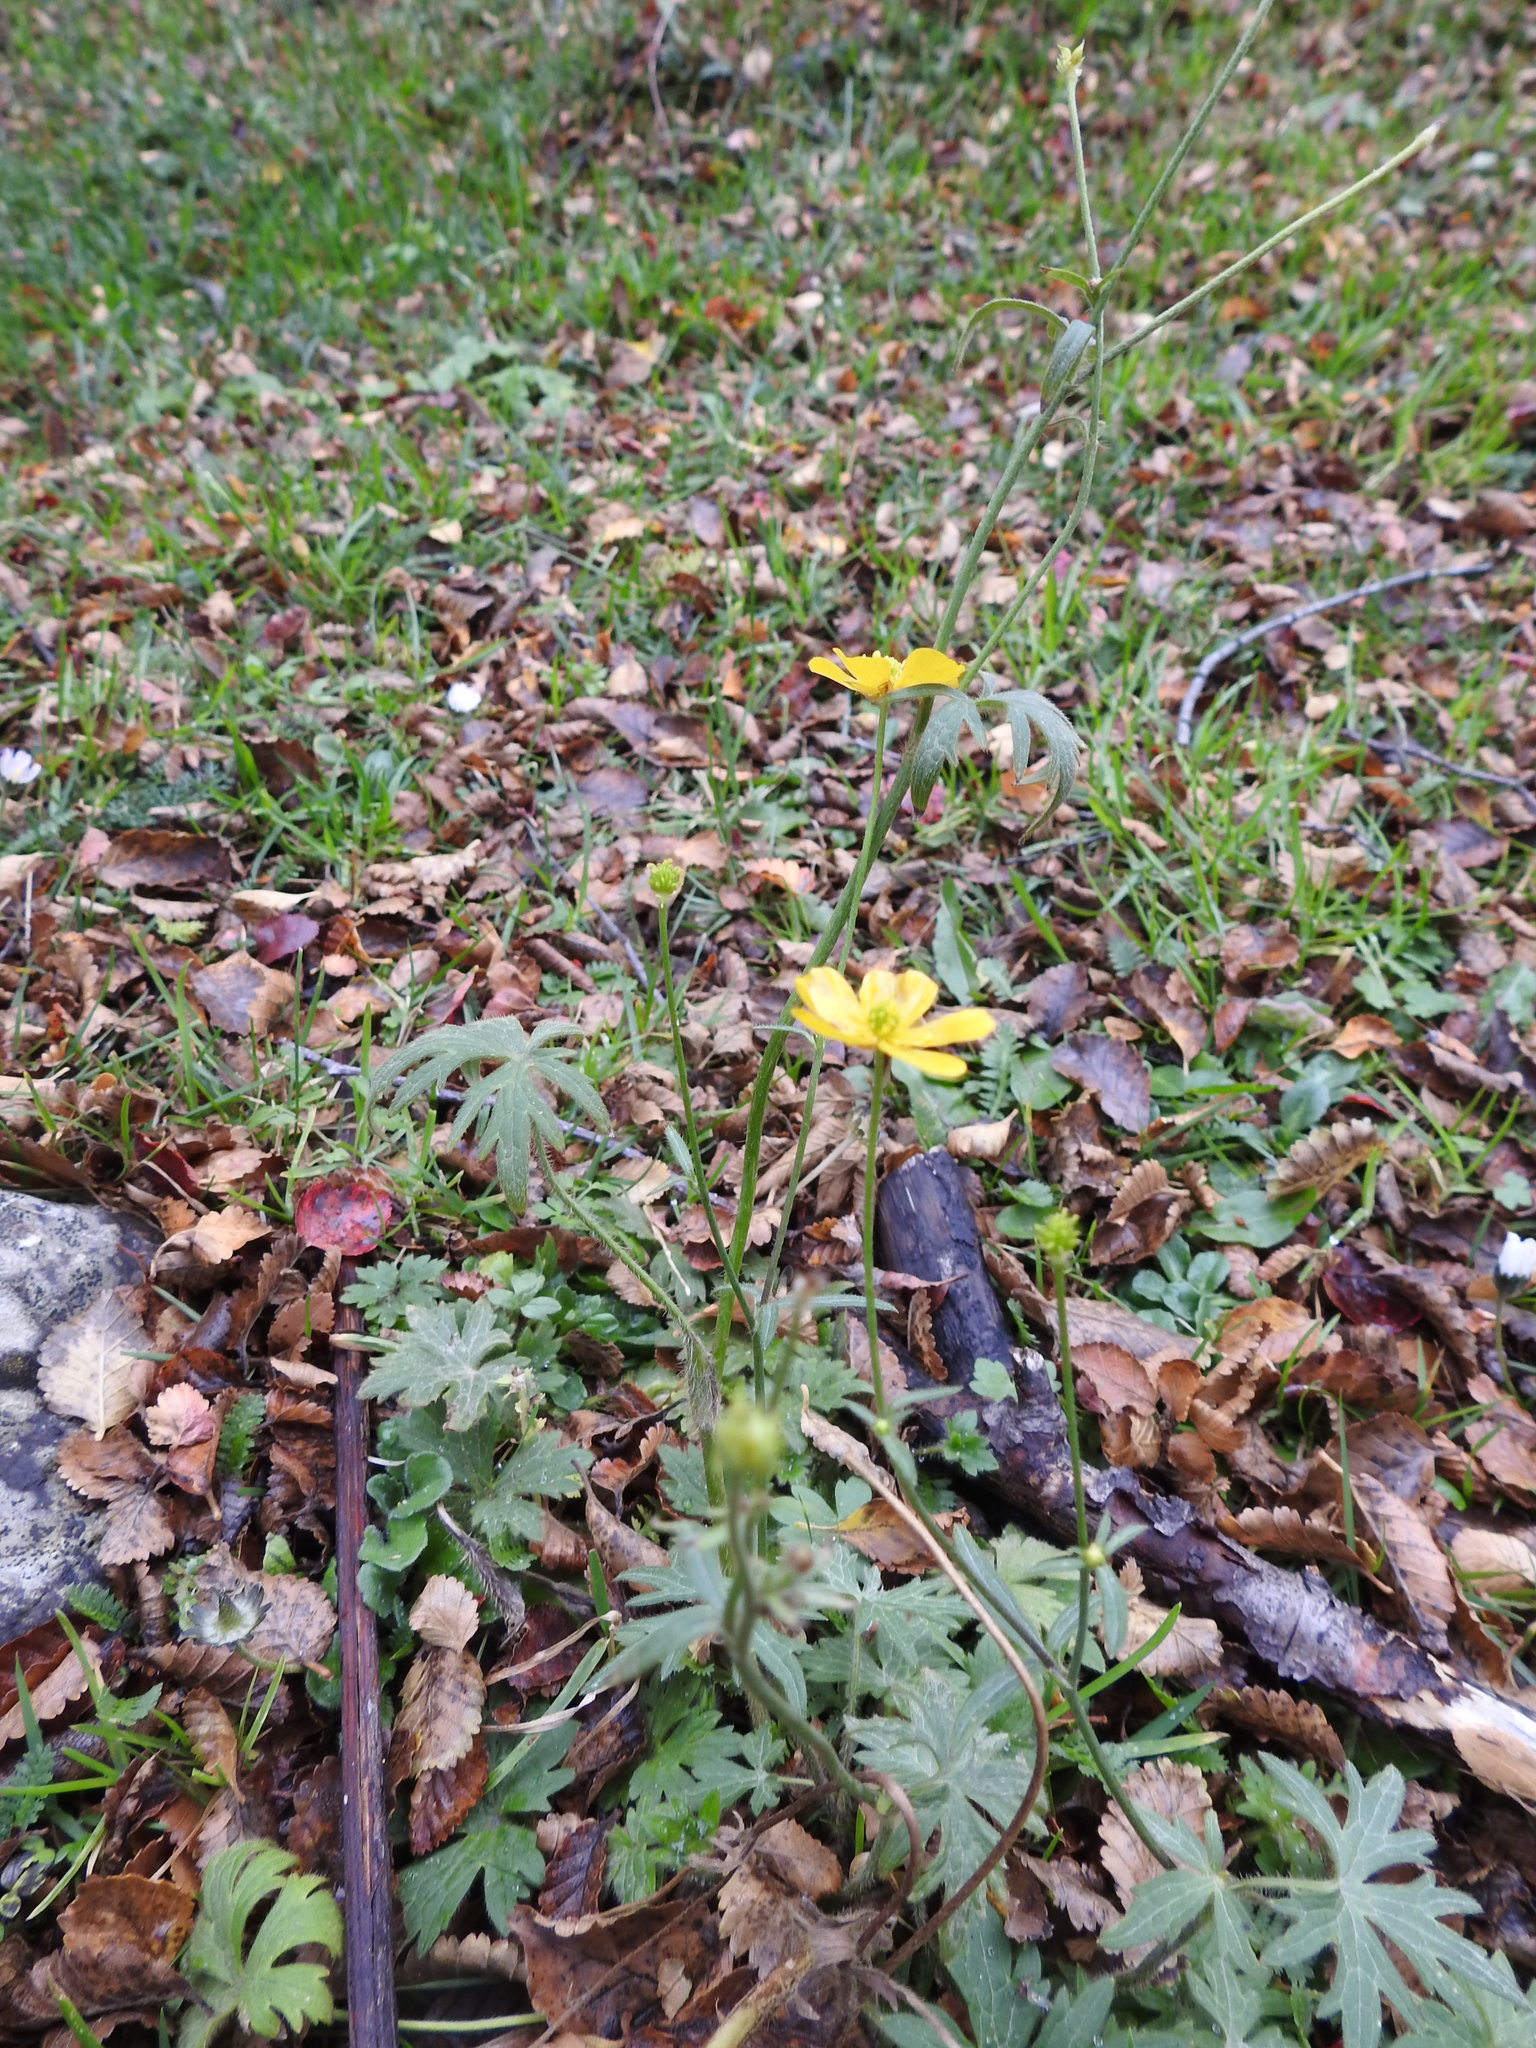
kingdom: Plantae
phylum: Tracheophyta
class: Magnoliopsida
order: Ranunculales
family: Ranunculaceae
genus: Ranunculus
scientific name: Ranunculus repens
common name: Creeping buttercup
